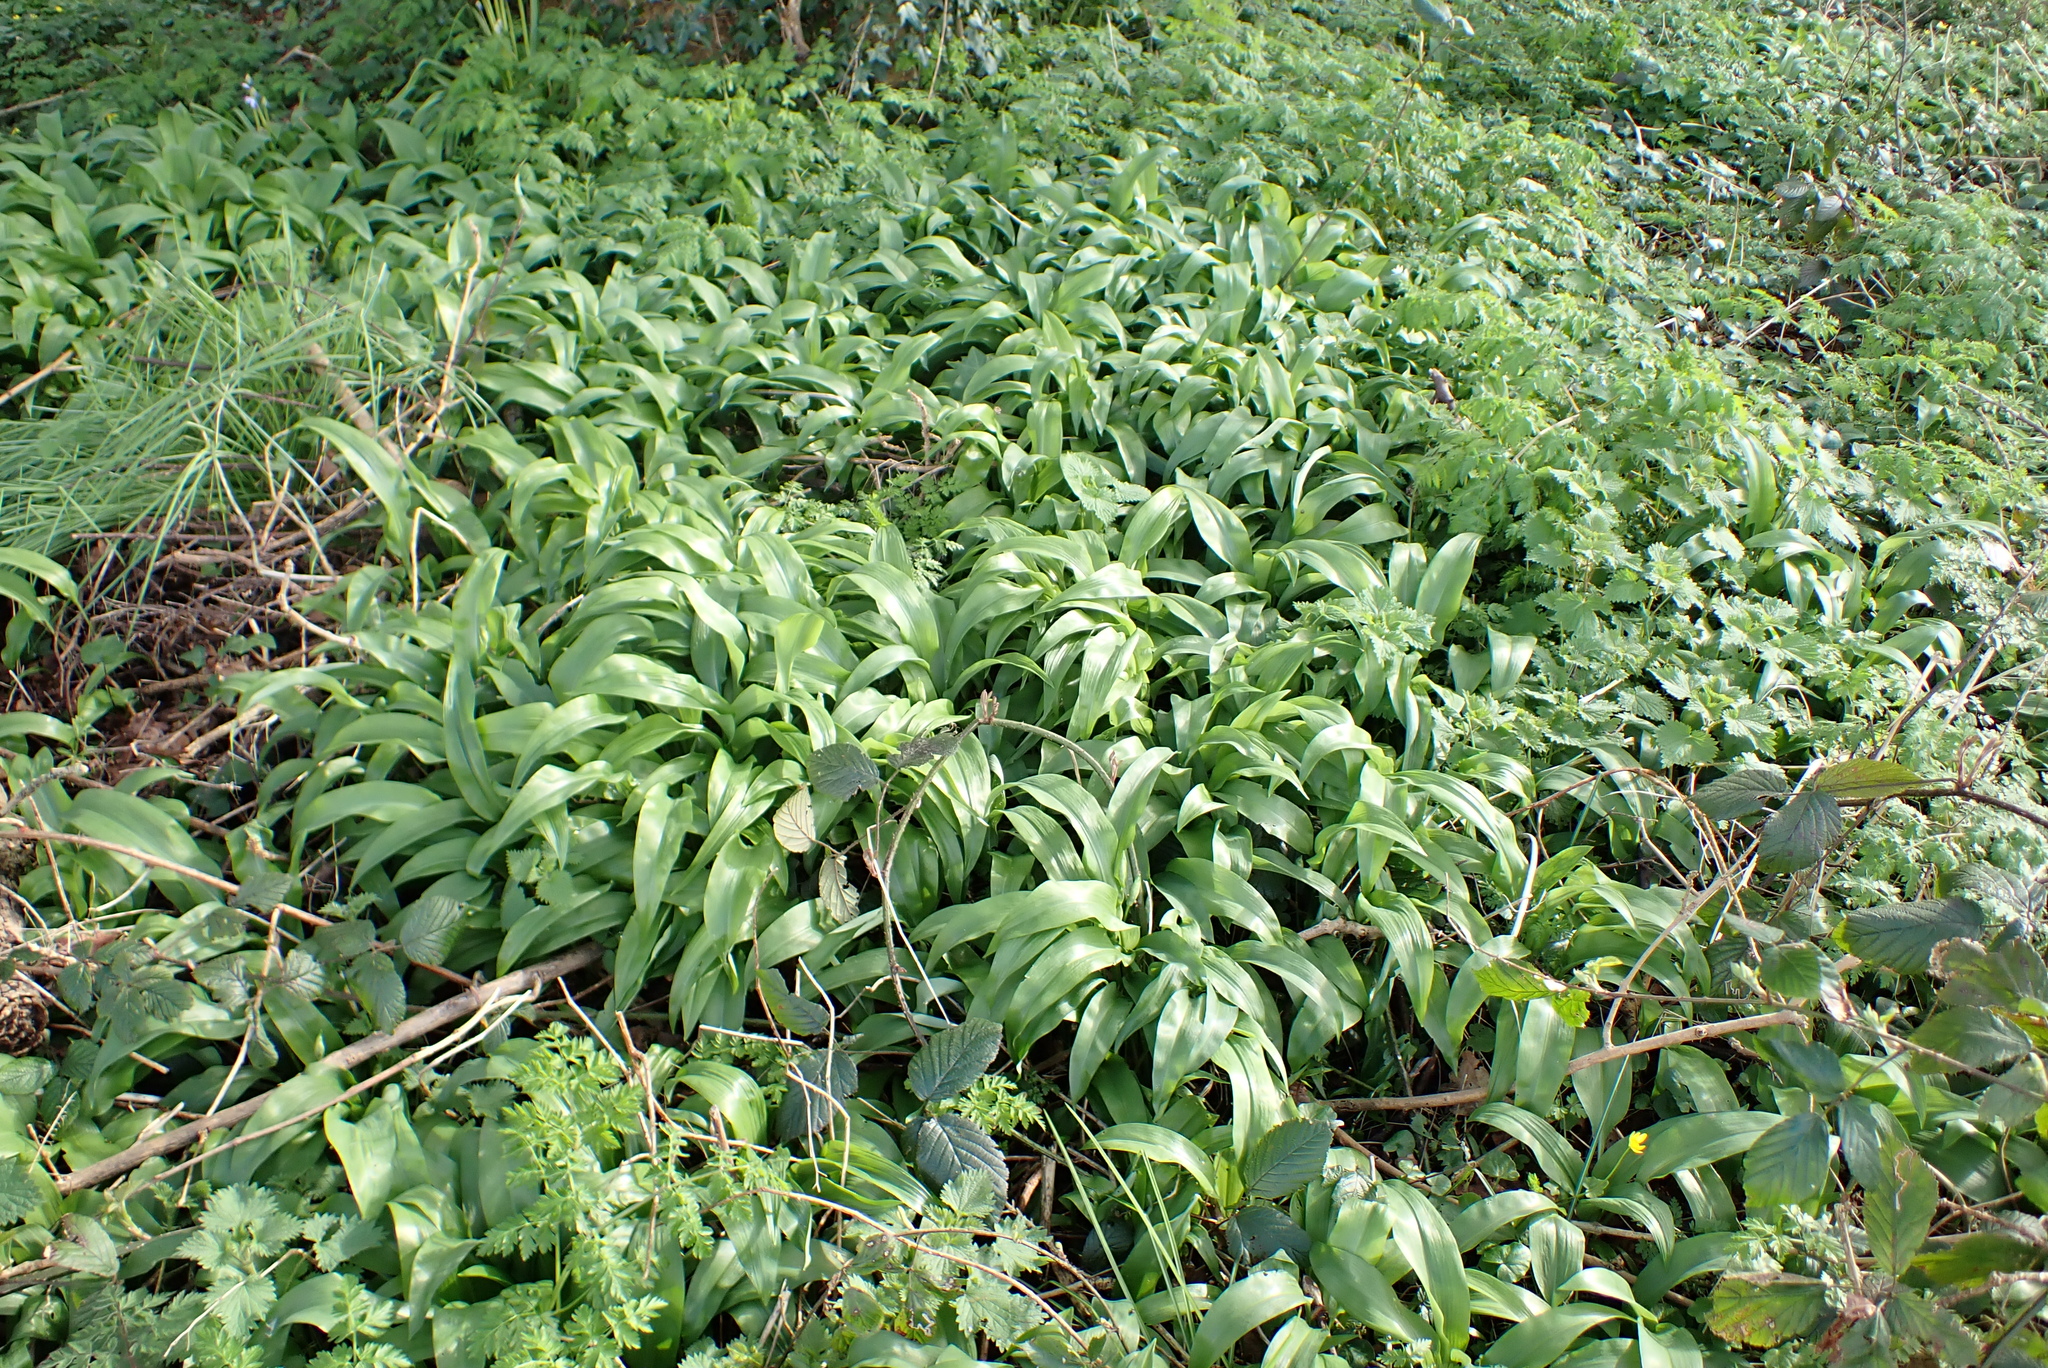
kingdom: Plantae
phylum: Tracheophyta
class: Liliopsida
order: Asparagales
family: Amaryllidaceae
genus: Allium
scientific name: Allium ursinum
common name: Ramsons
